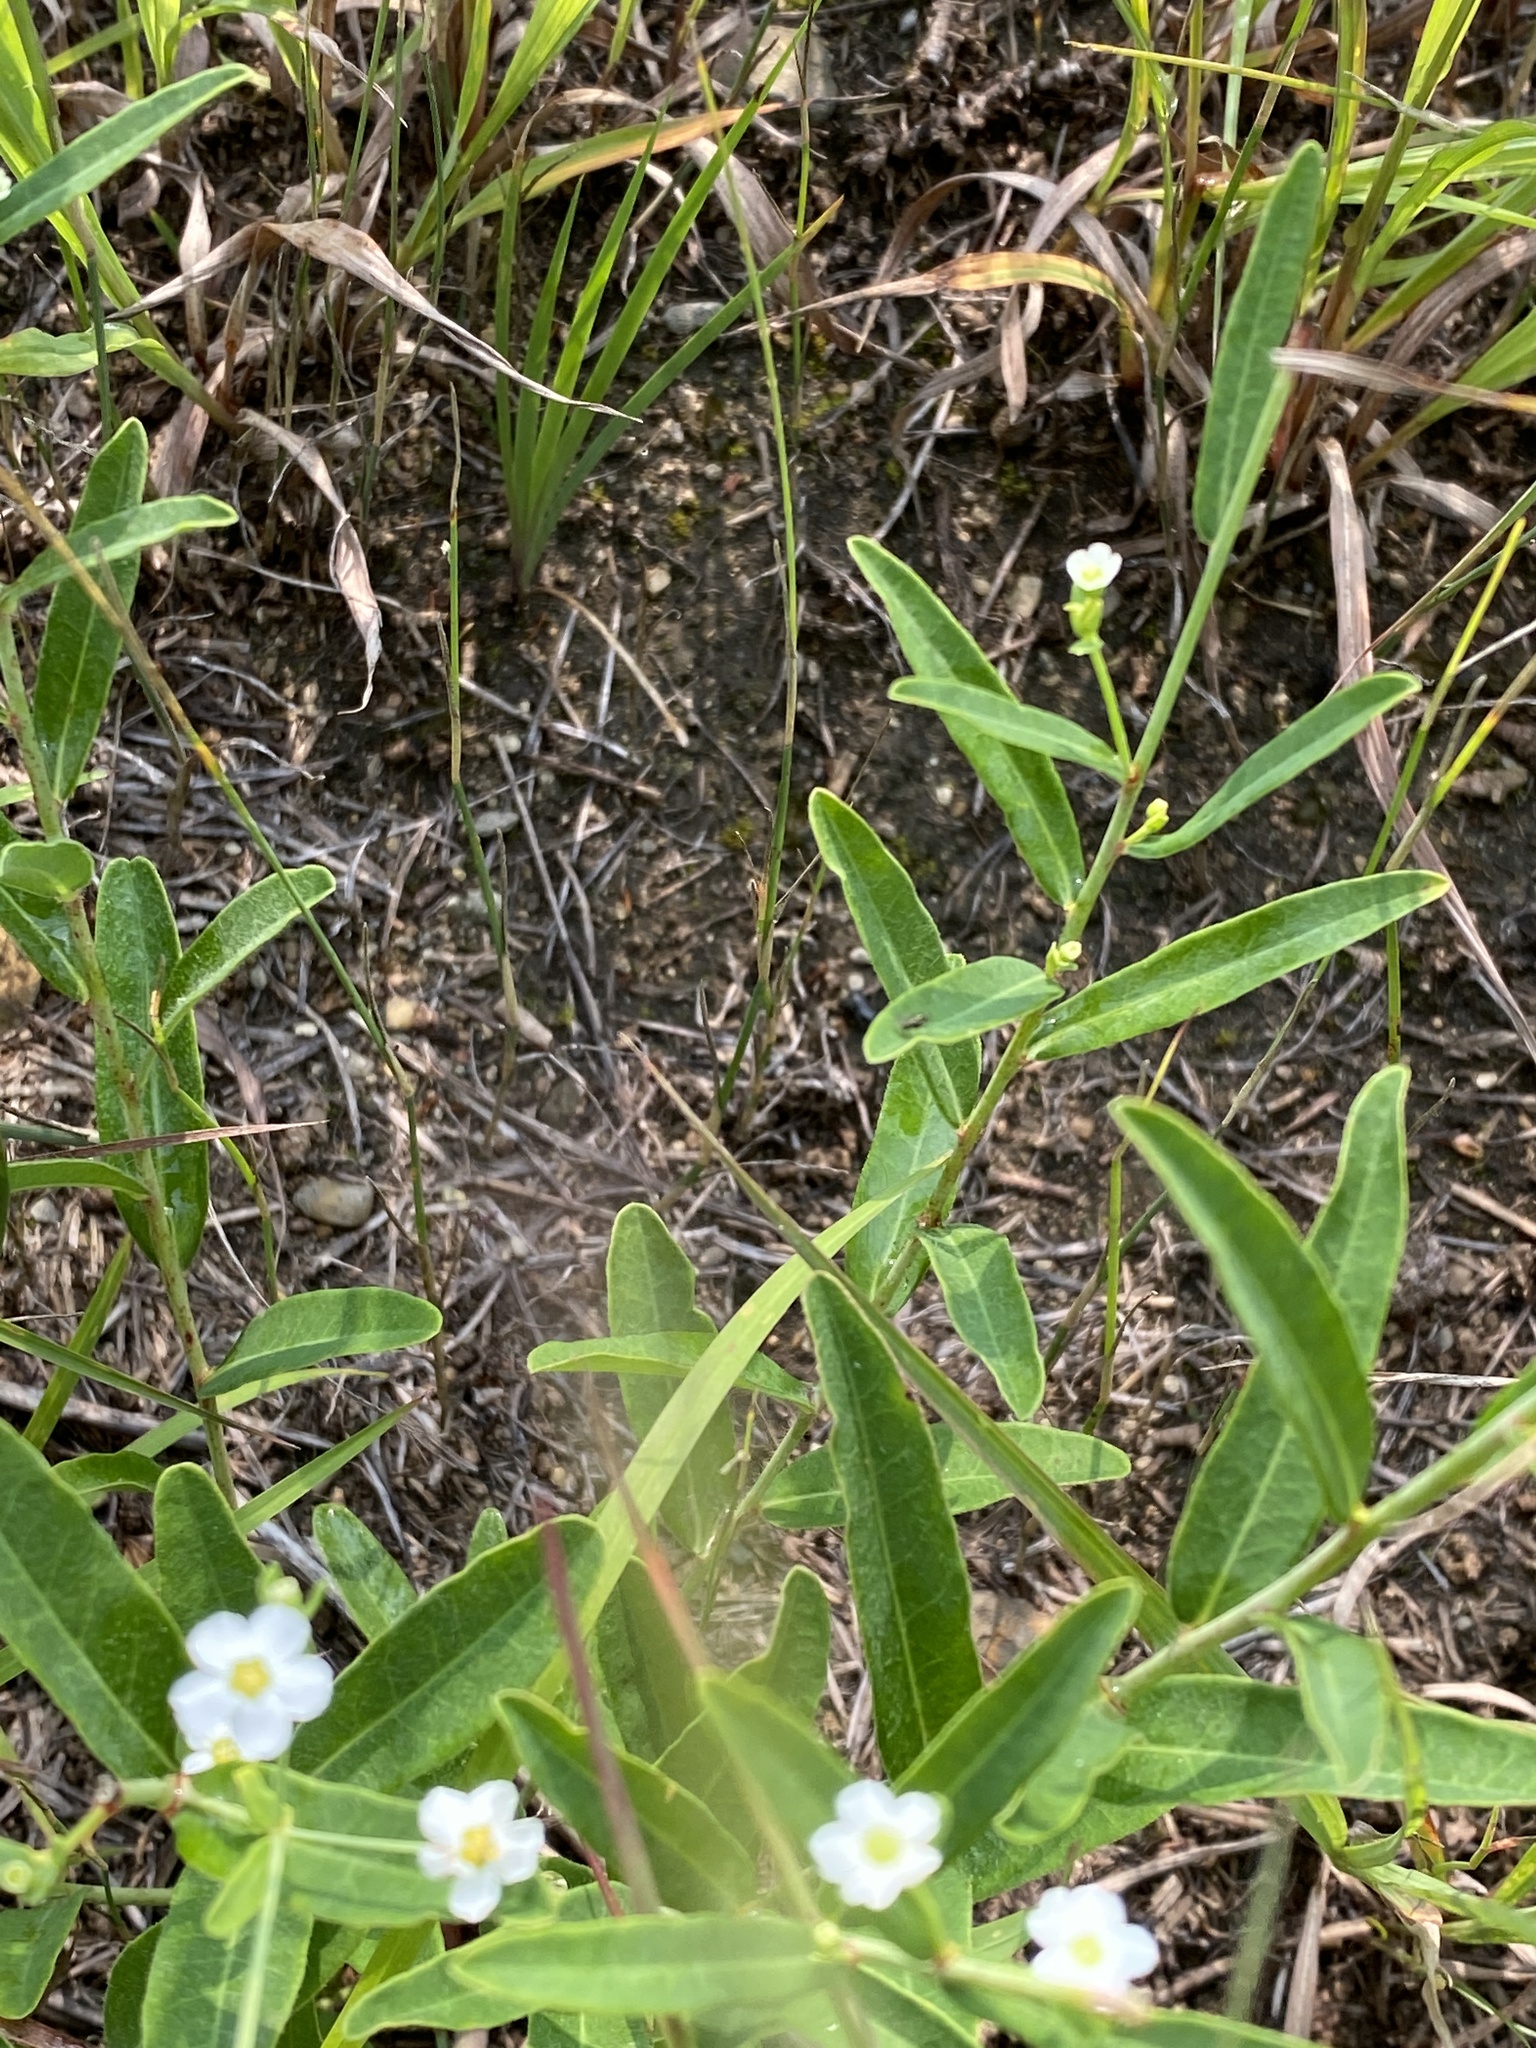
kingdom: Plantae
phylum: Tracheophyta
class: Magnoliopsida
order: Malpighiales
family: Euphorbiaceae
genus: Euphorbia
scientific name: Euphorbia corollata
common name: Flowering spurge
